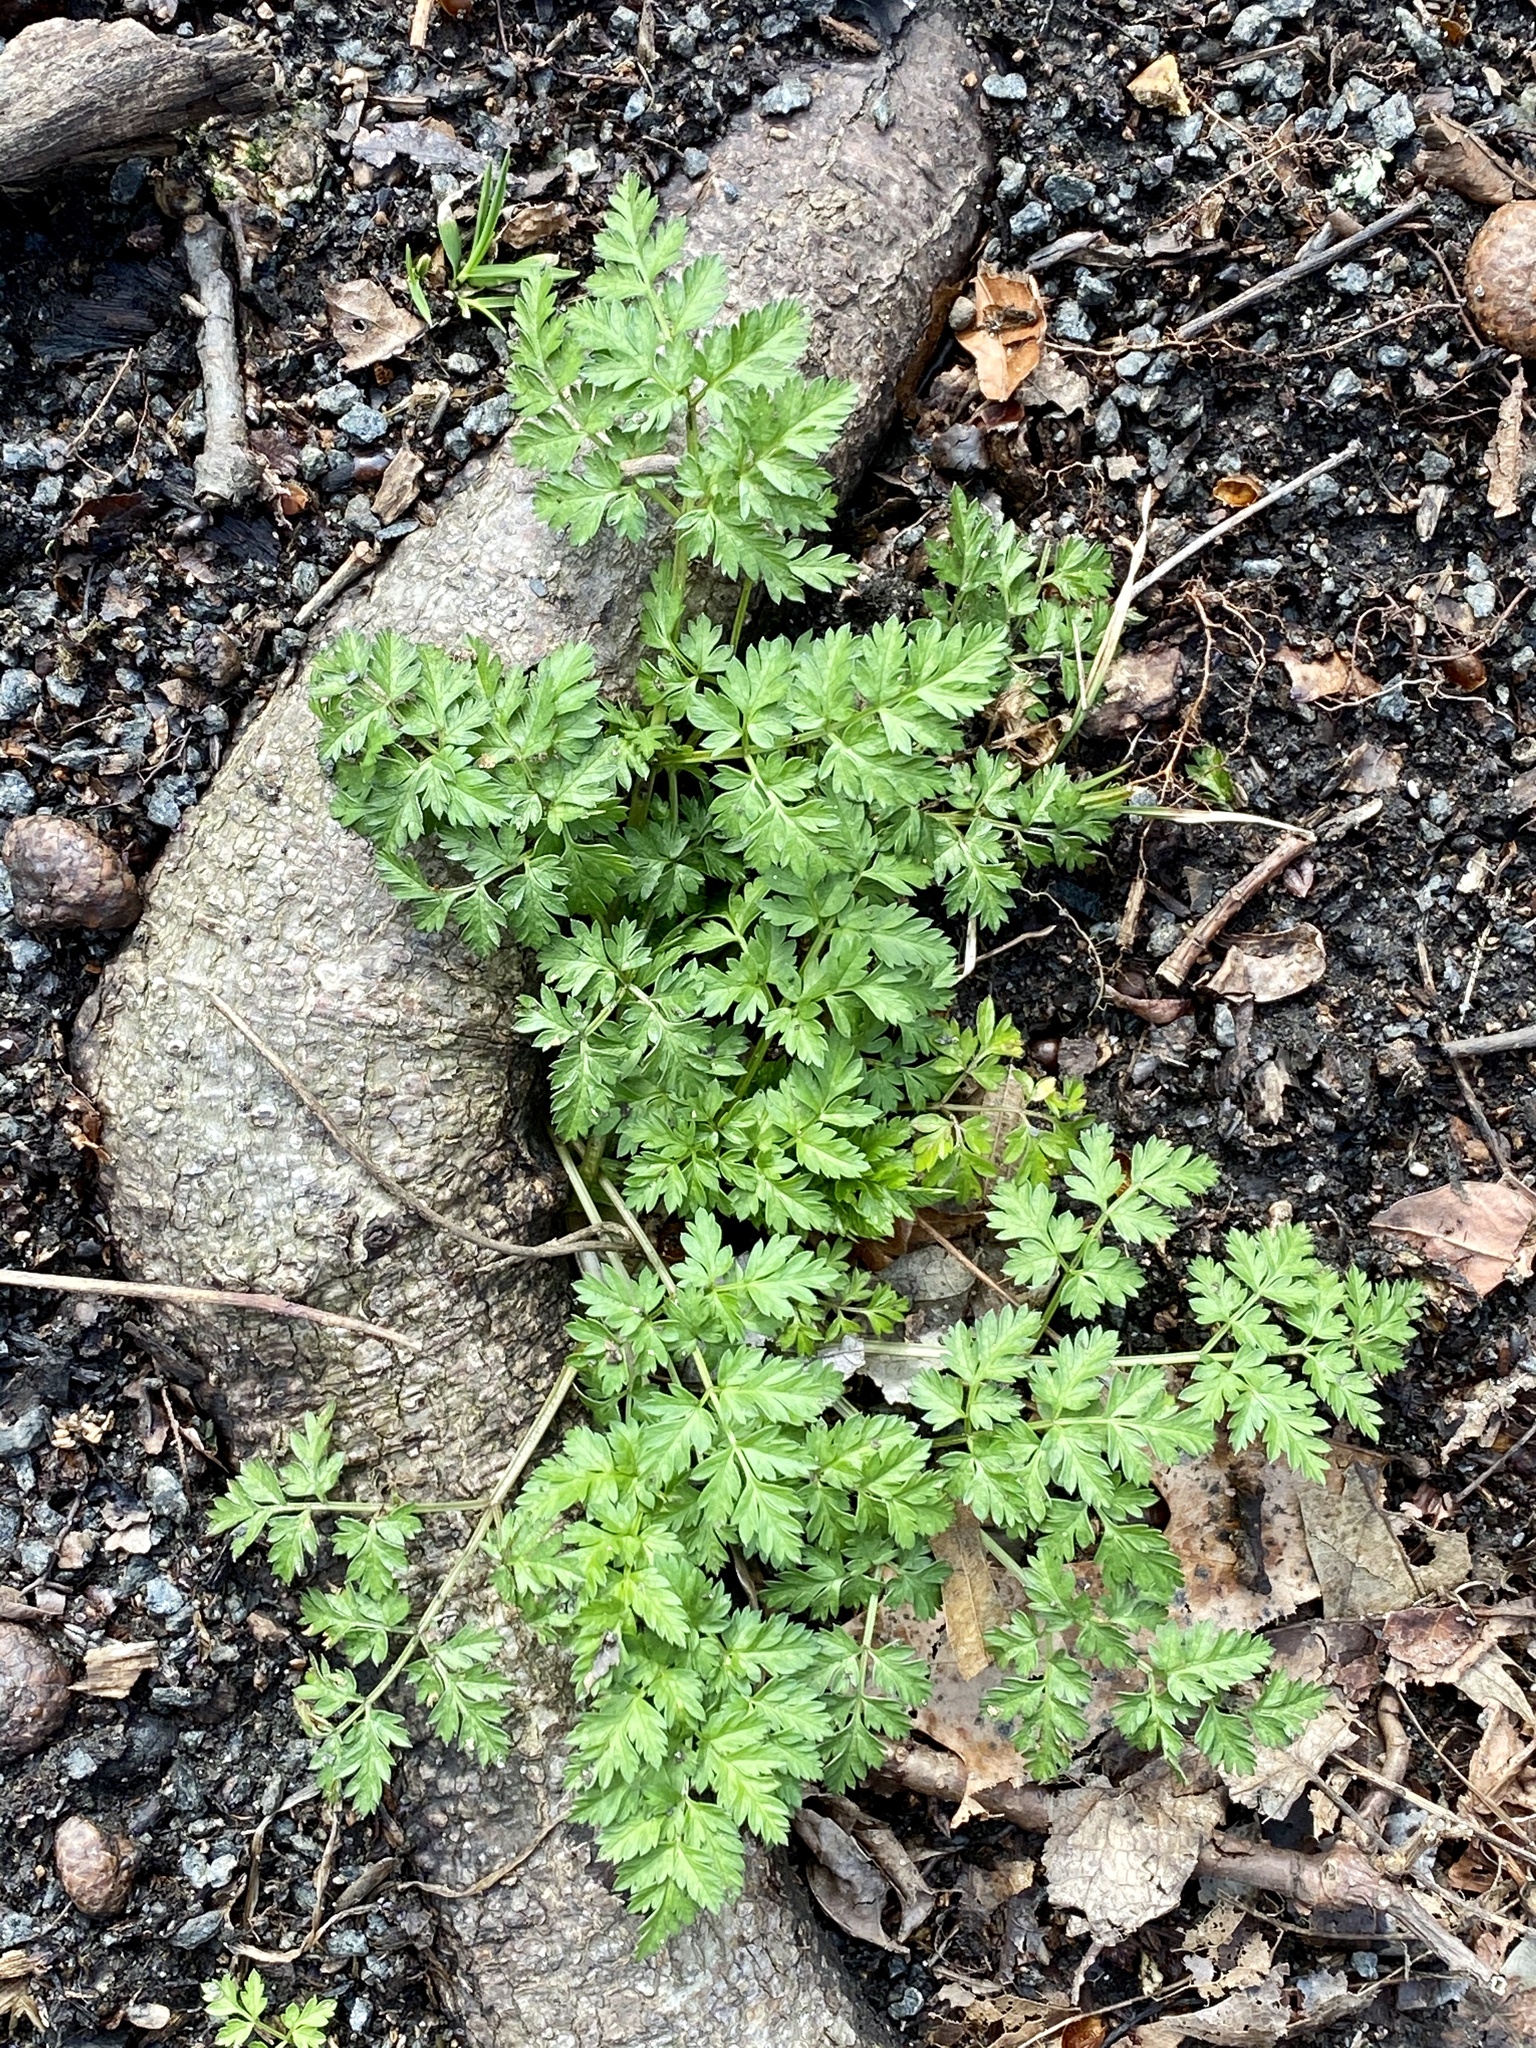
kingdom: Plantae
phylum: Tracheophyta
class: Magnoliopsida
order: Apiales
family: Apiaceae
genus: Anthriscus
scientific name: Anthriscus sylvestris
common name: Cow parsley
